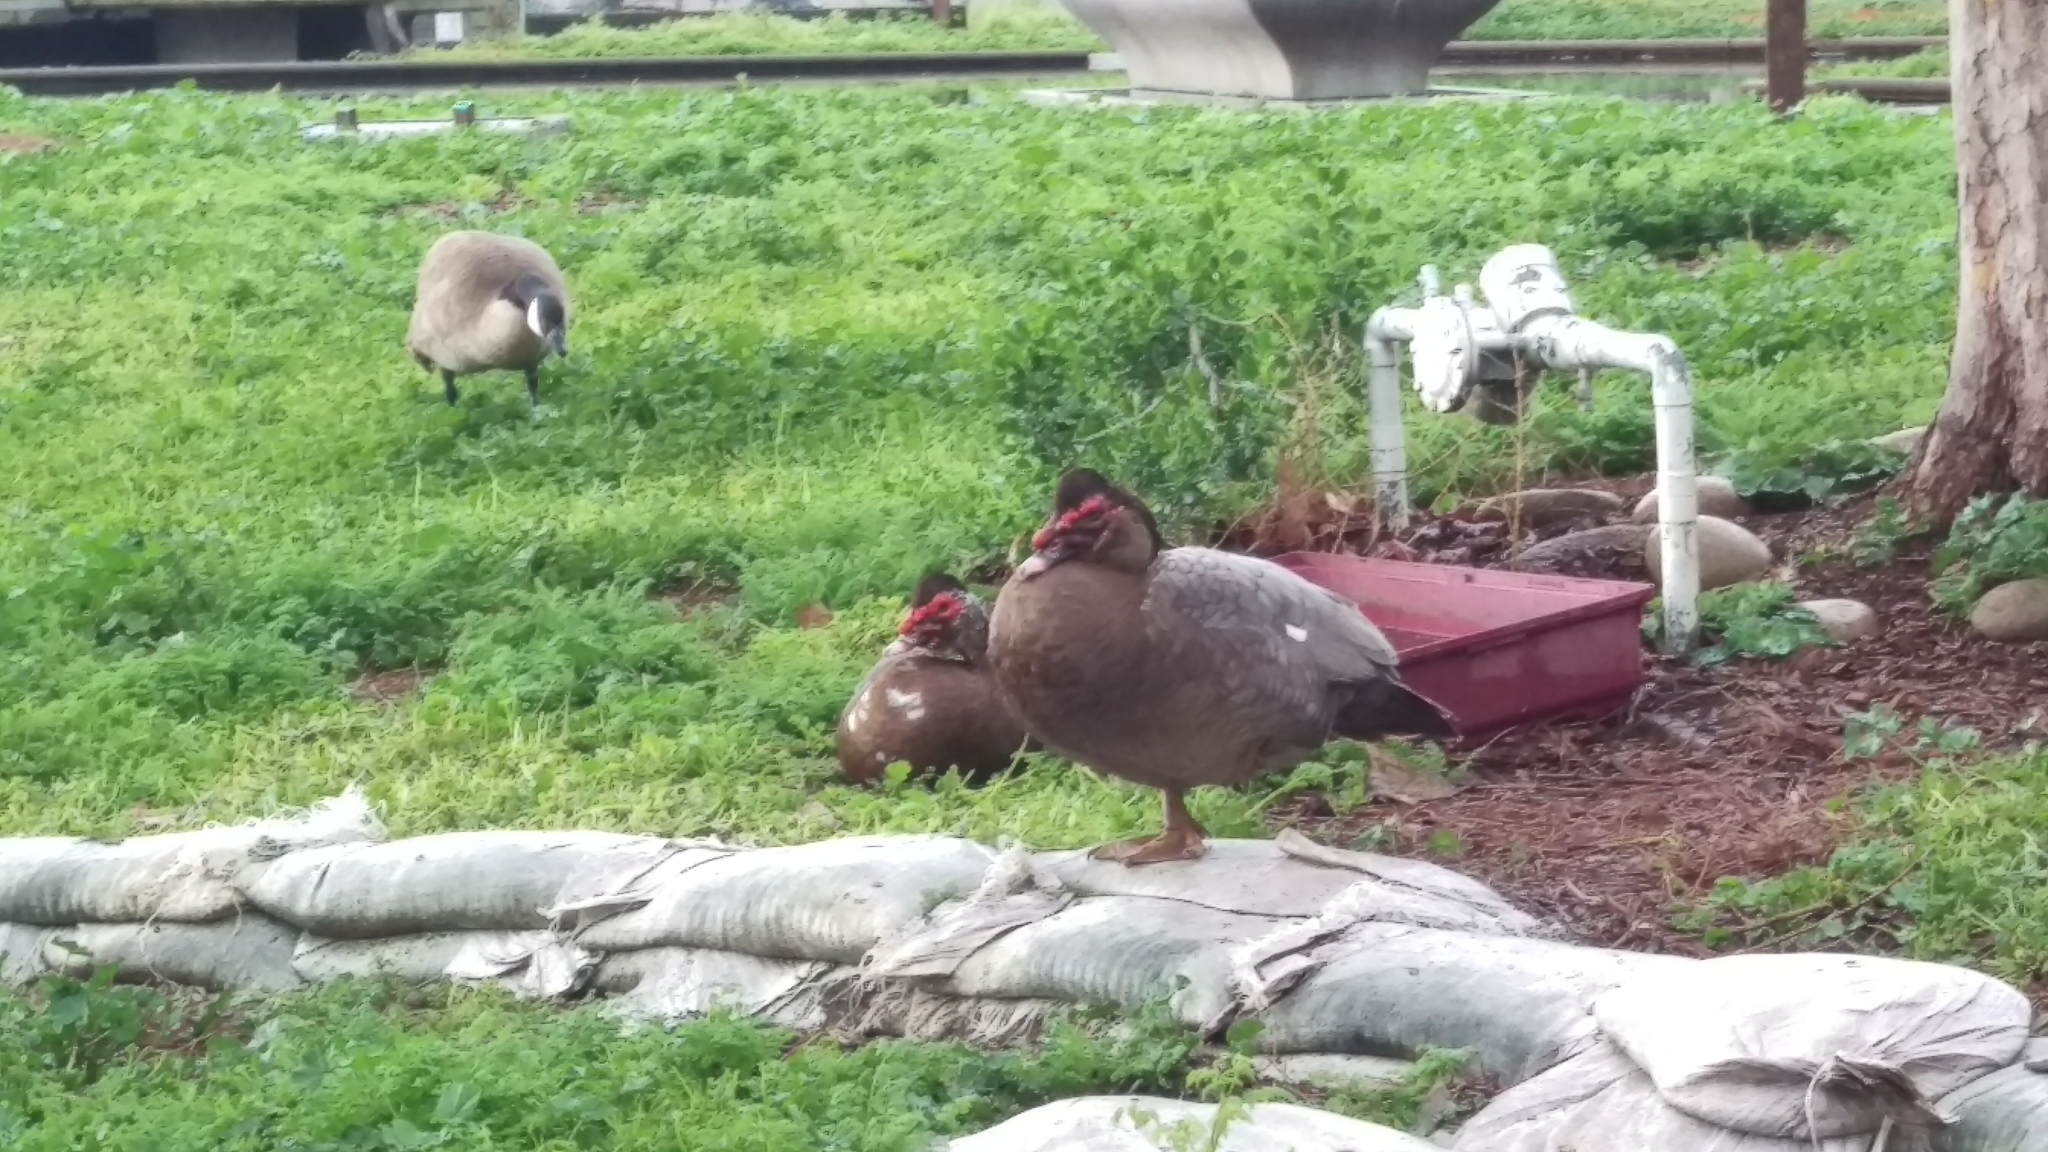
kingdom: Animalia
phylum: Chordata
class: Aves
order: Anseriformes
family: Anatidae
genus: Cairina
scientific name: Cairina moschata
